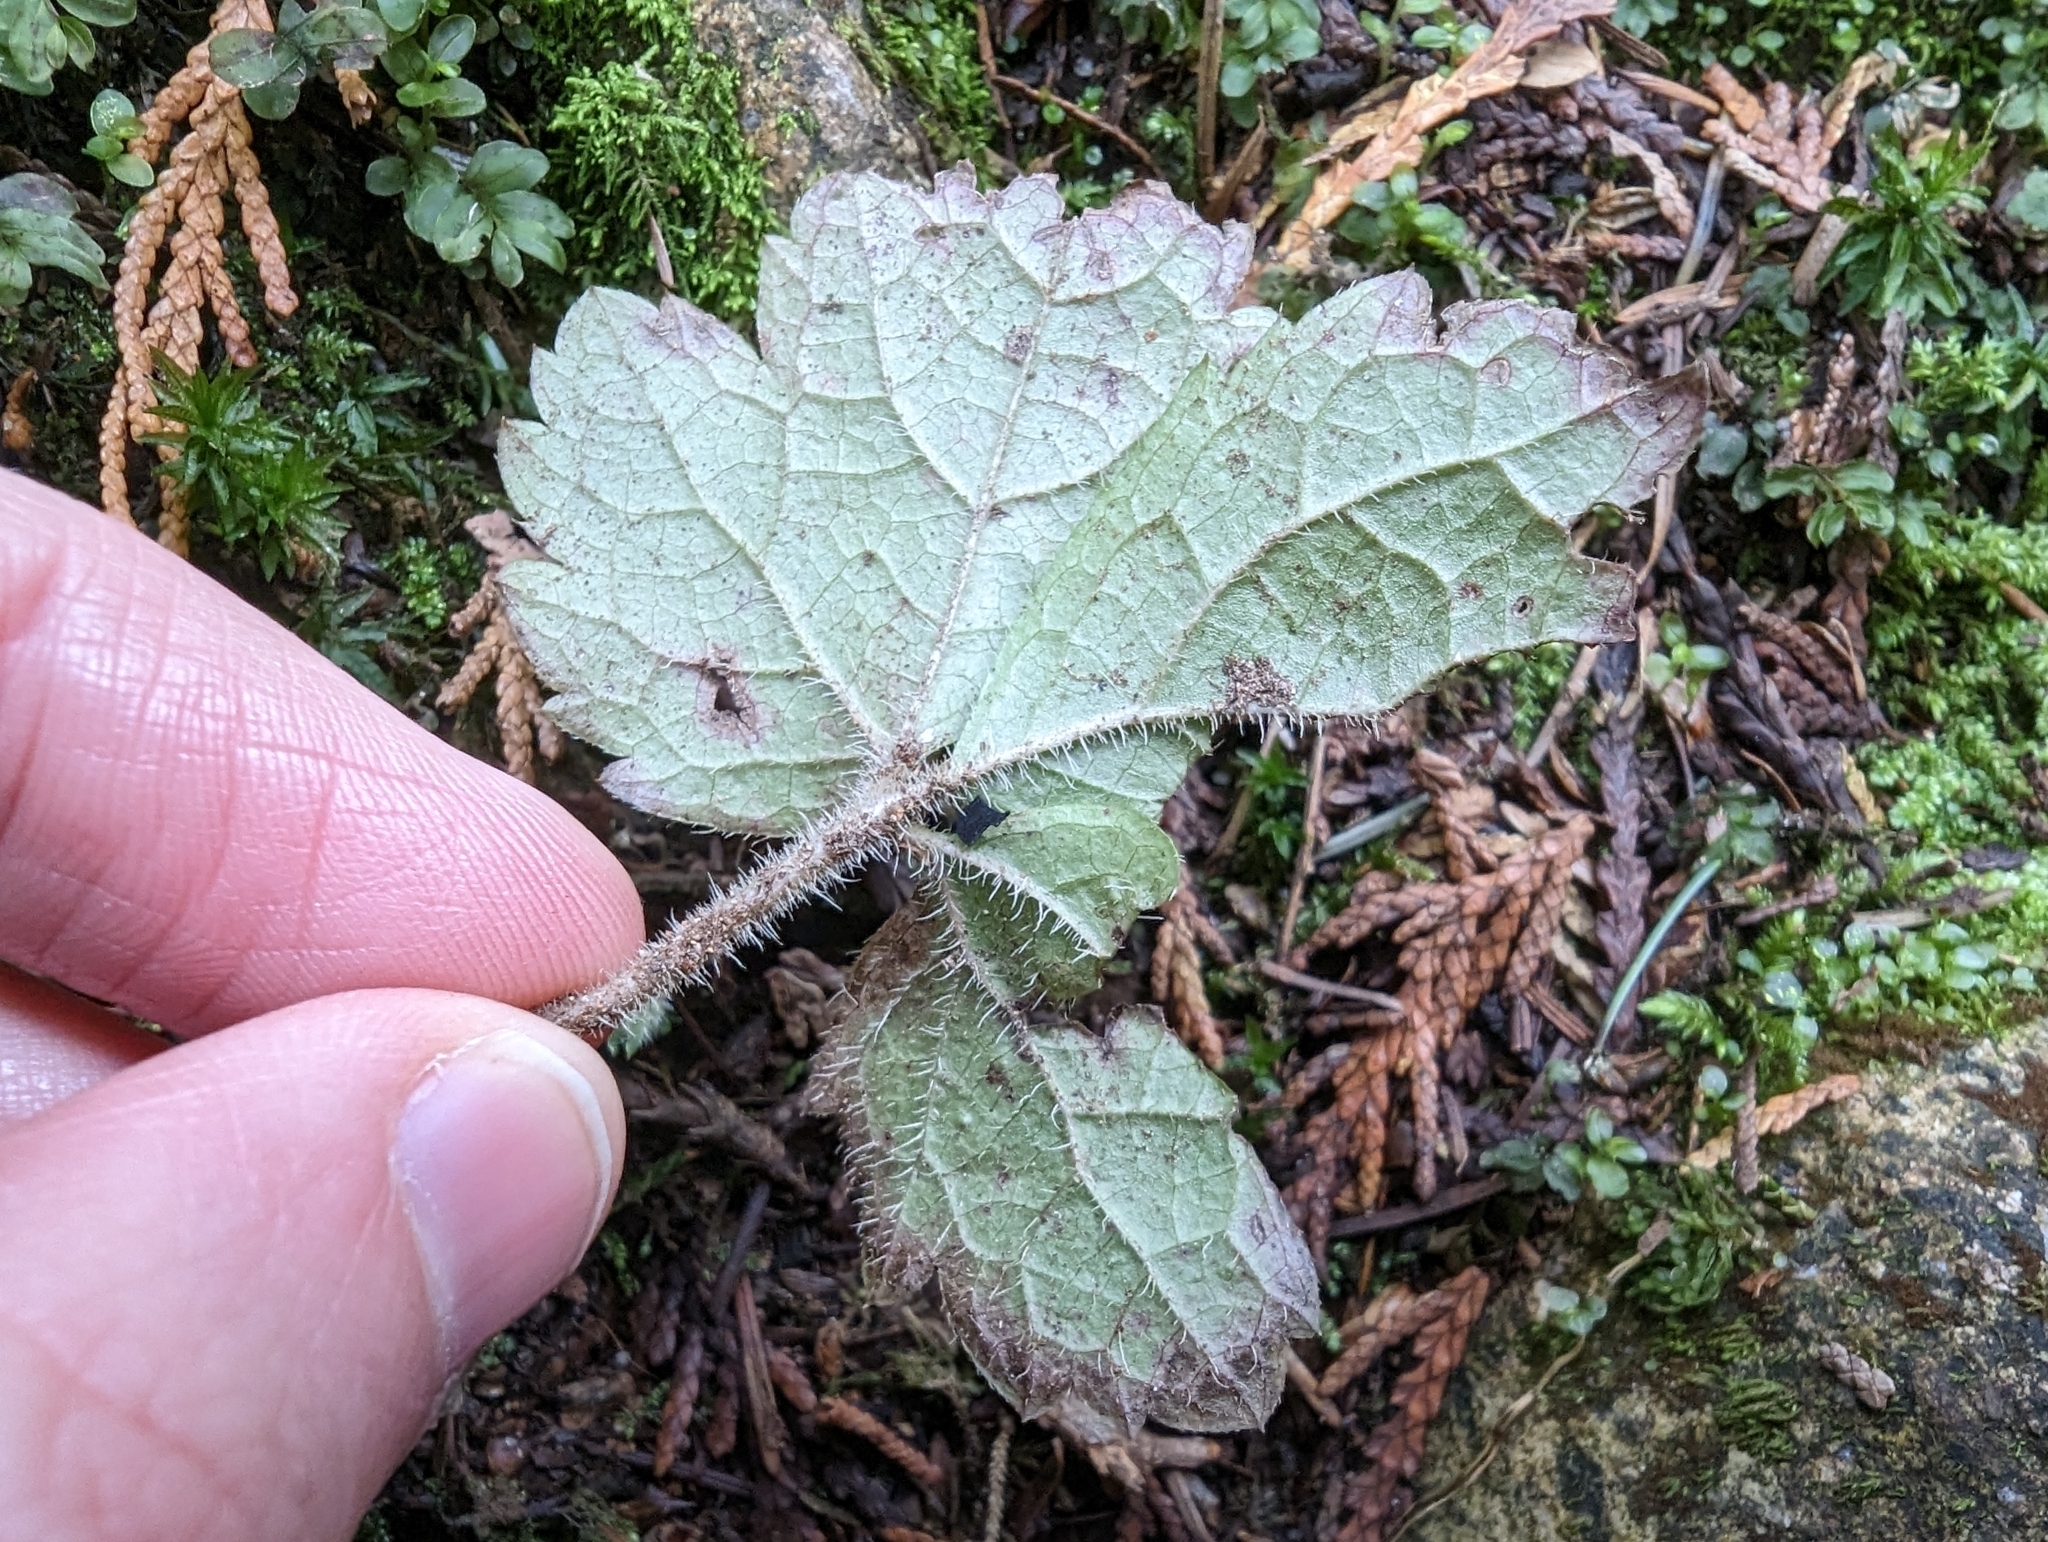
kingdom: Plantae
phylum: Tracheophyta
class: Magnoliopsida
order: Saxifragales
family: Saxifragaceae
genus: Tiarella
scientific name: Tiarella trifoliata
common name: Sugar-scoop
